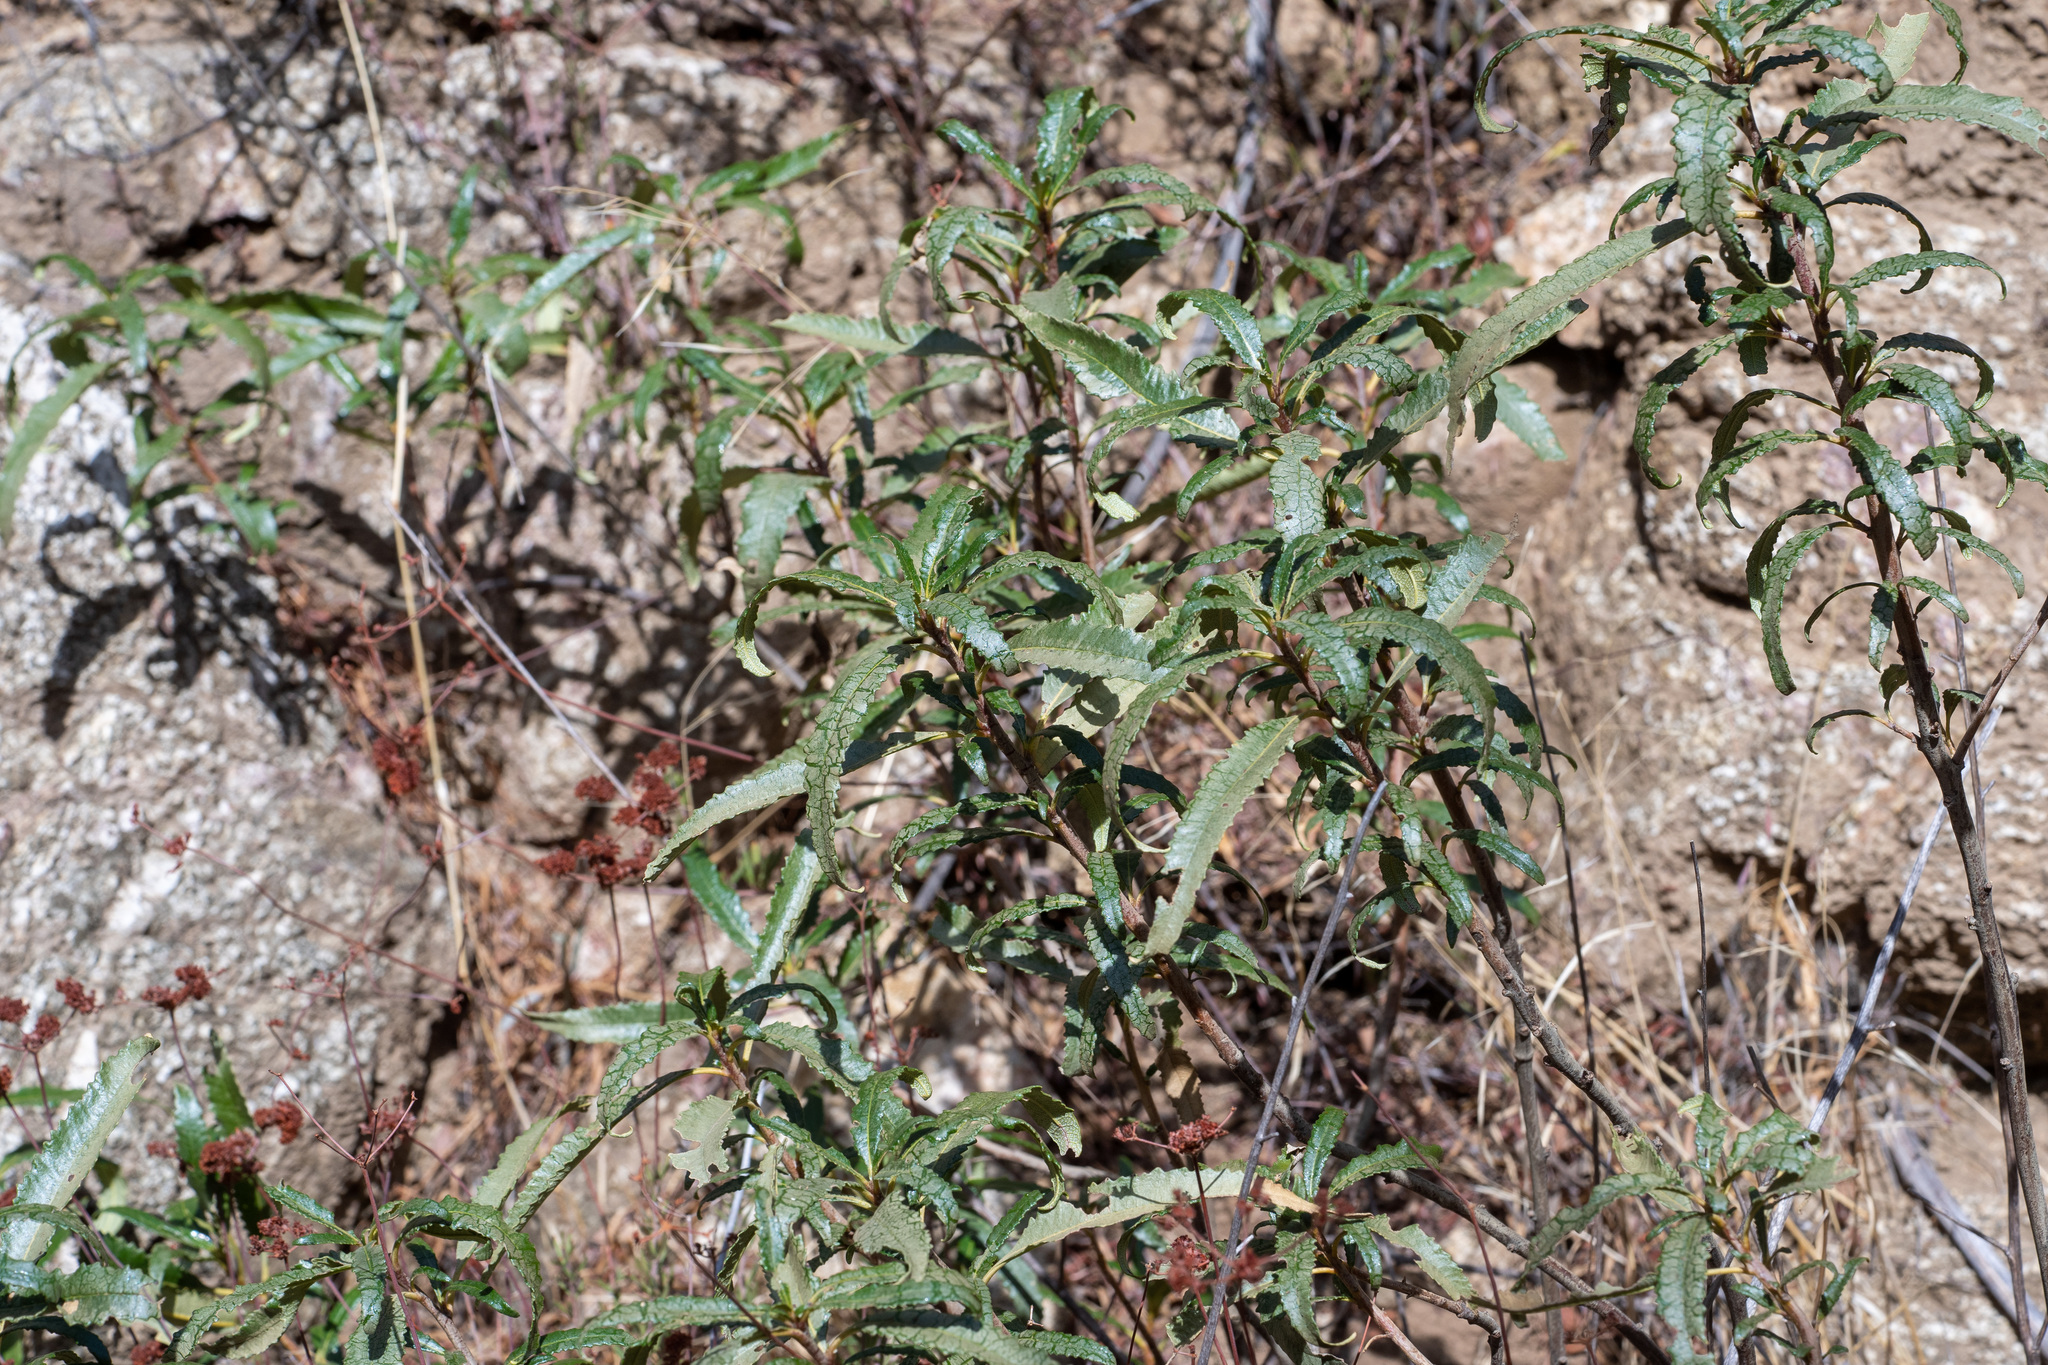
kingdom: Plantae
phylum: Tracheophyta
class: Magnoliopsida
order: Boraginales
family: Namaceae
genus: Eriodictyon
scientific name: Eriodictyon trichocalyx
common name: Hairy yerba-santa
